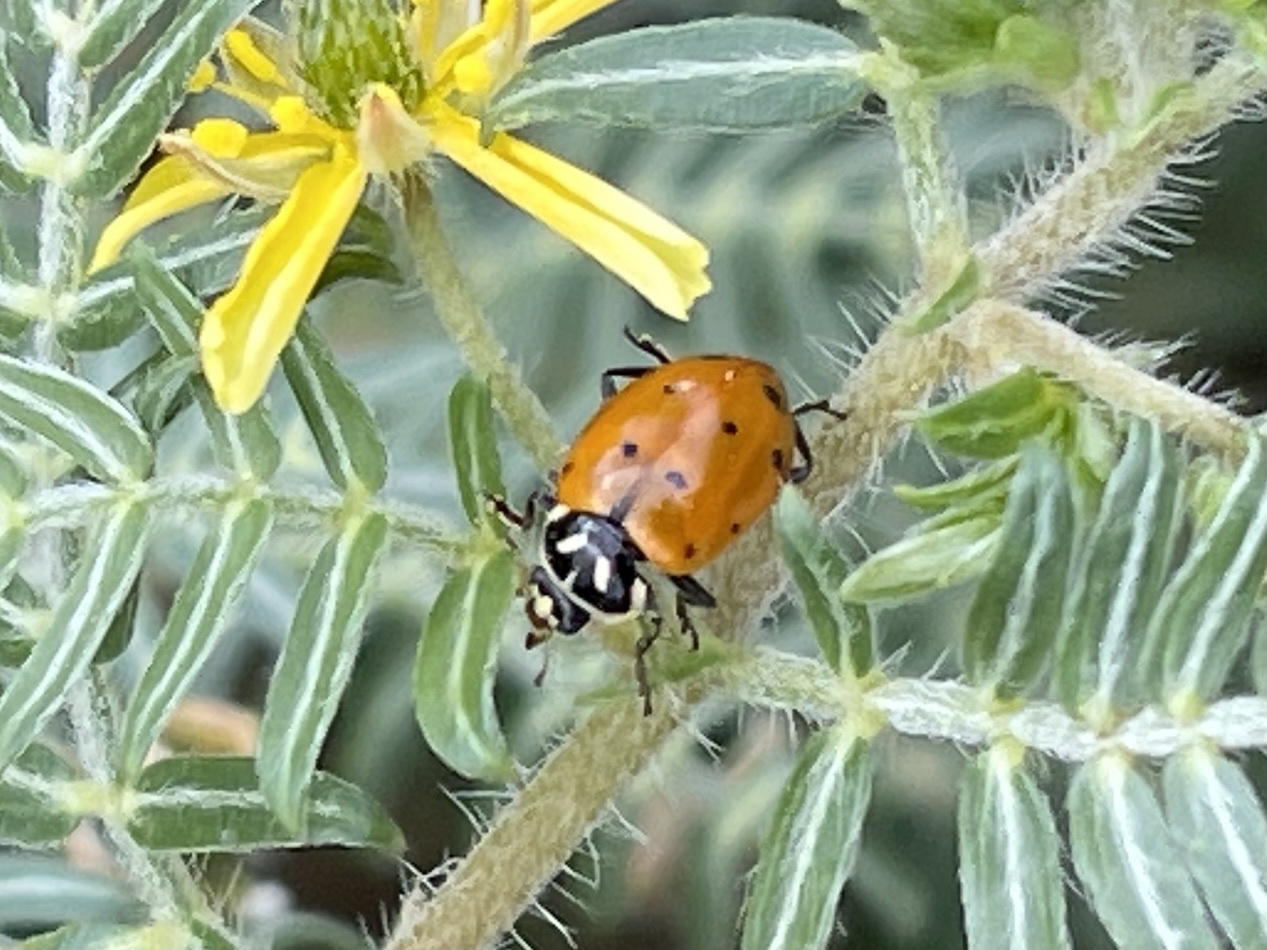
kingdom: Animalia
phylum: Arthropoda
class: Insecta
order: Coleoptera
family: Coccinellidae
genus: Hippodamia
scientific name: Hippodamia convergens
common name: Convergent lady beetle
